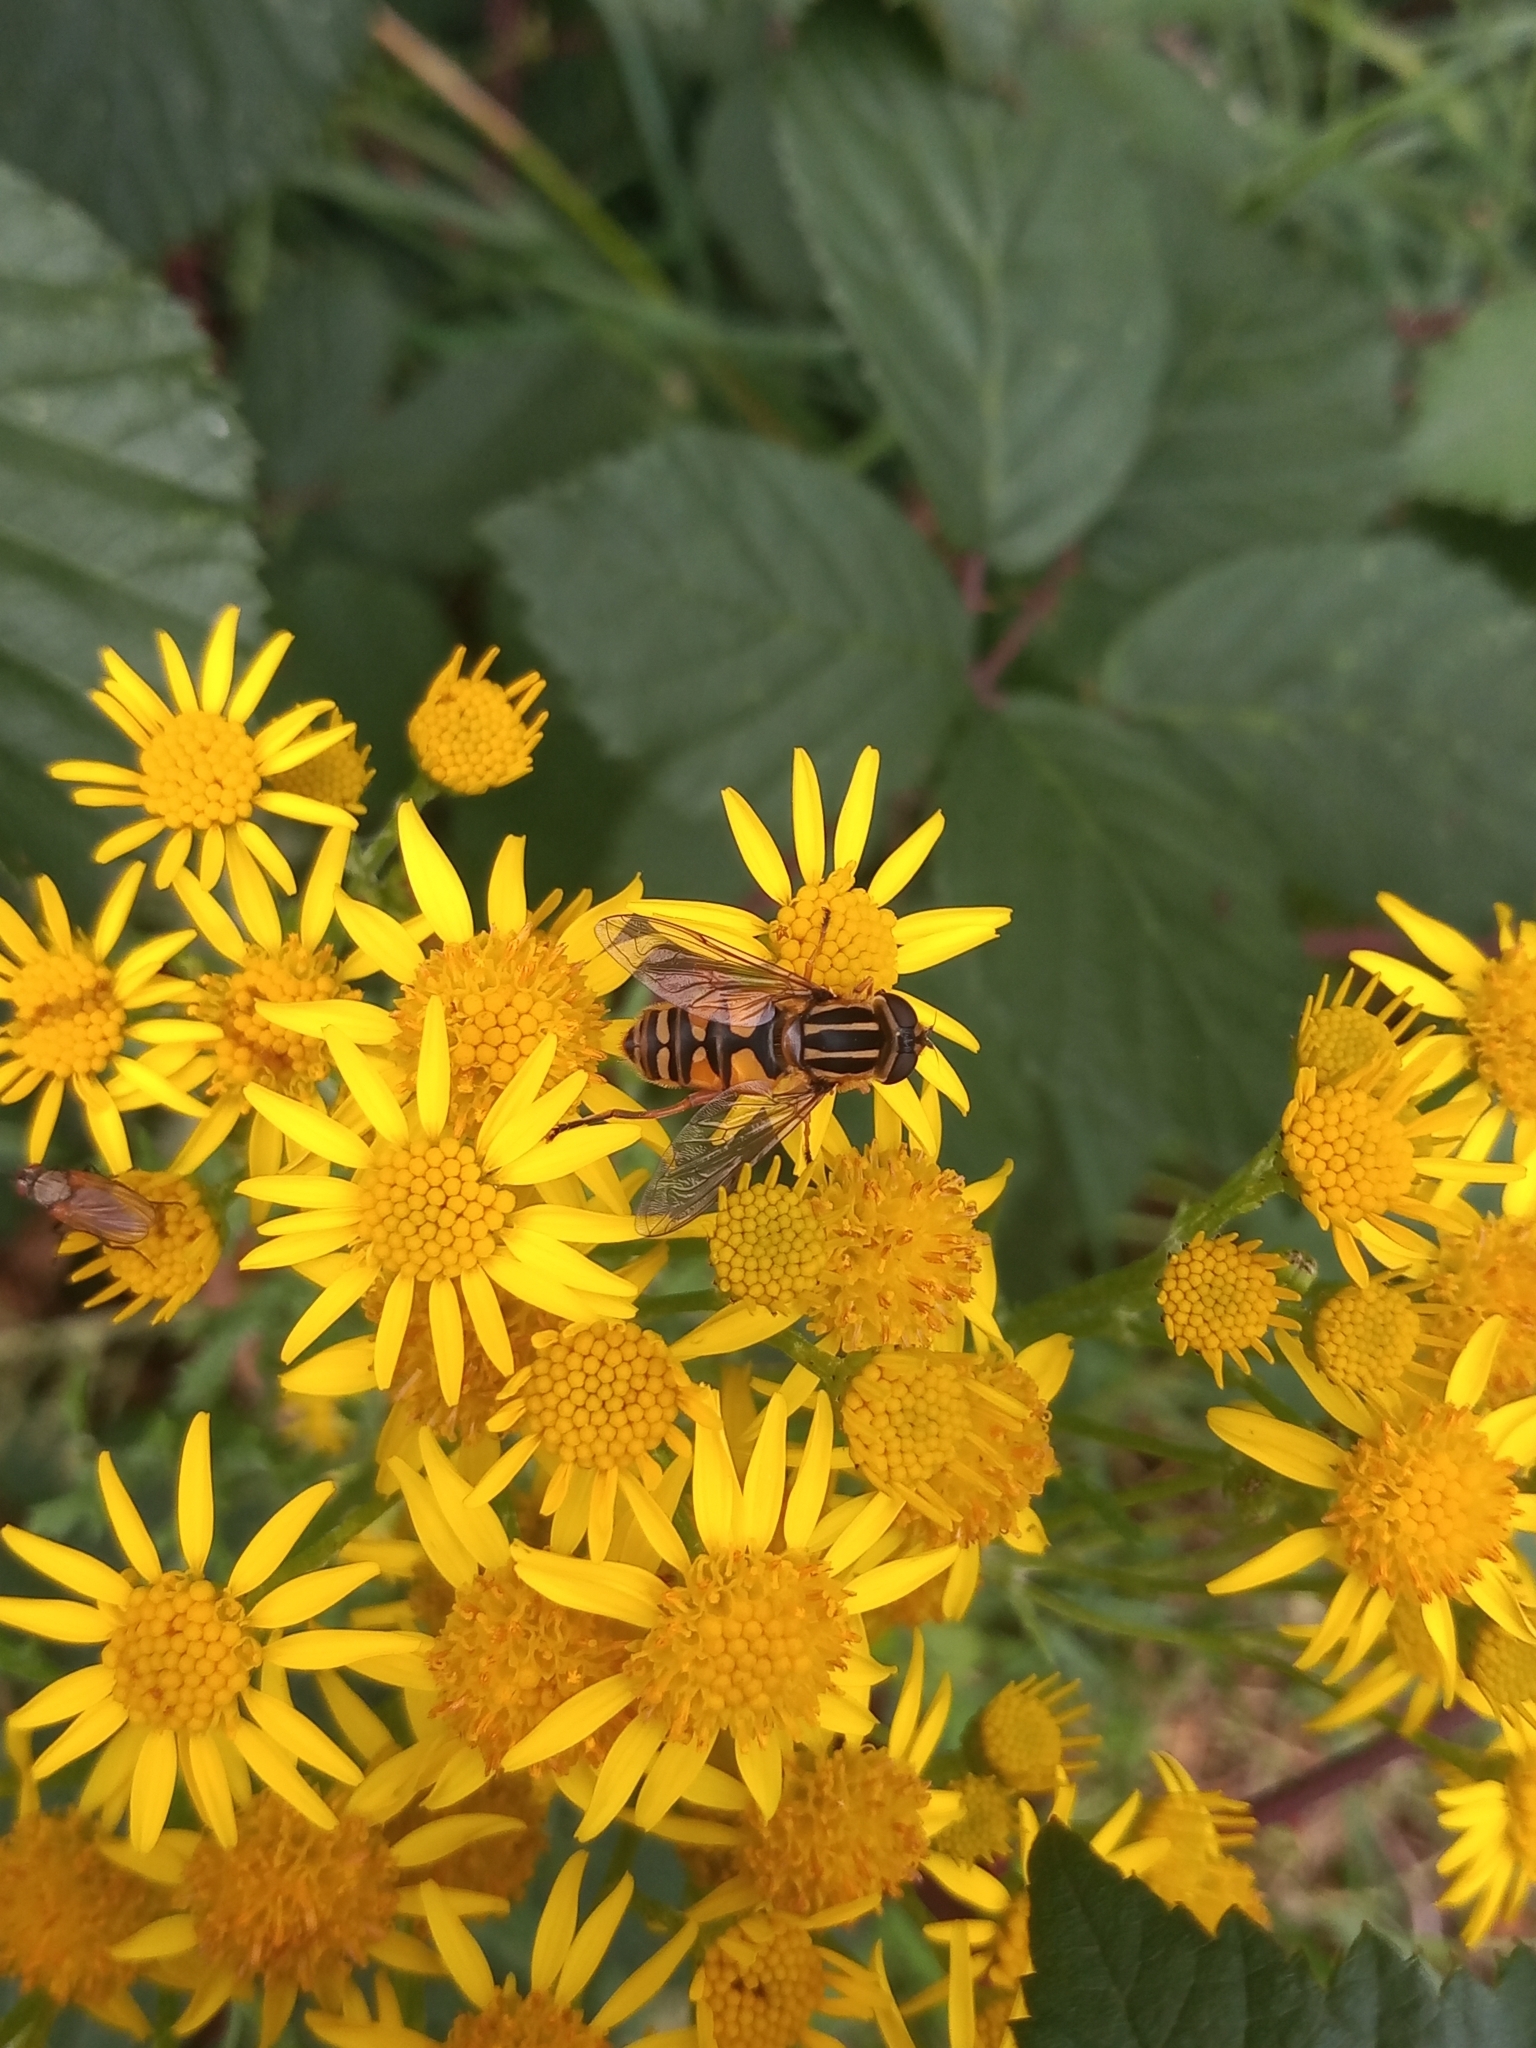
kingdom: Animalia
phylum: Arthropoda
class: Insecta
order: Diptera
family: Syrphidae
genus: Helophilus
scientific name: Helophilus pendulus
